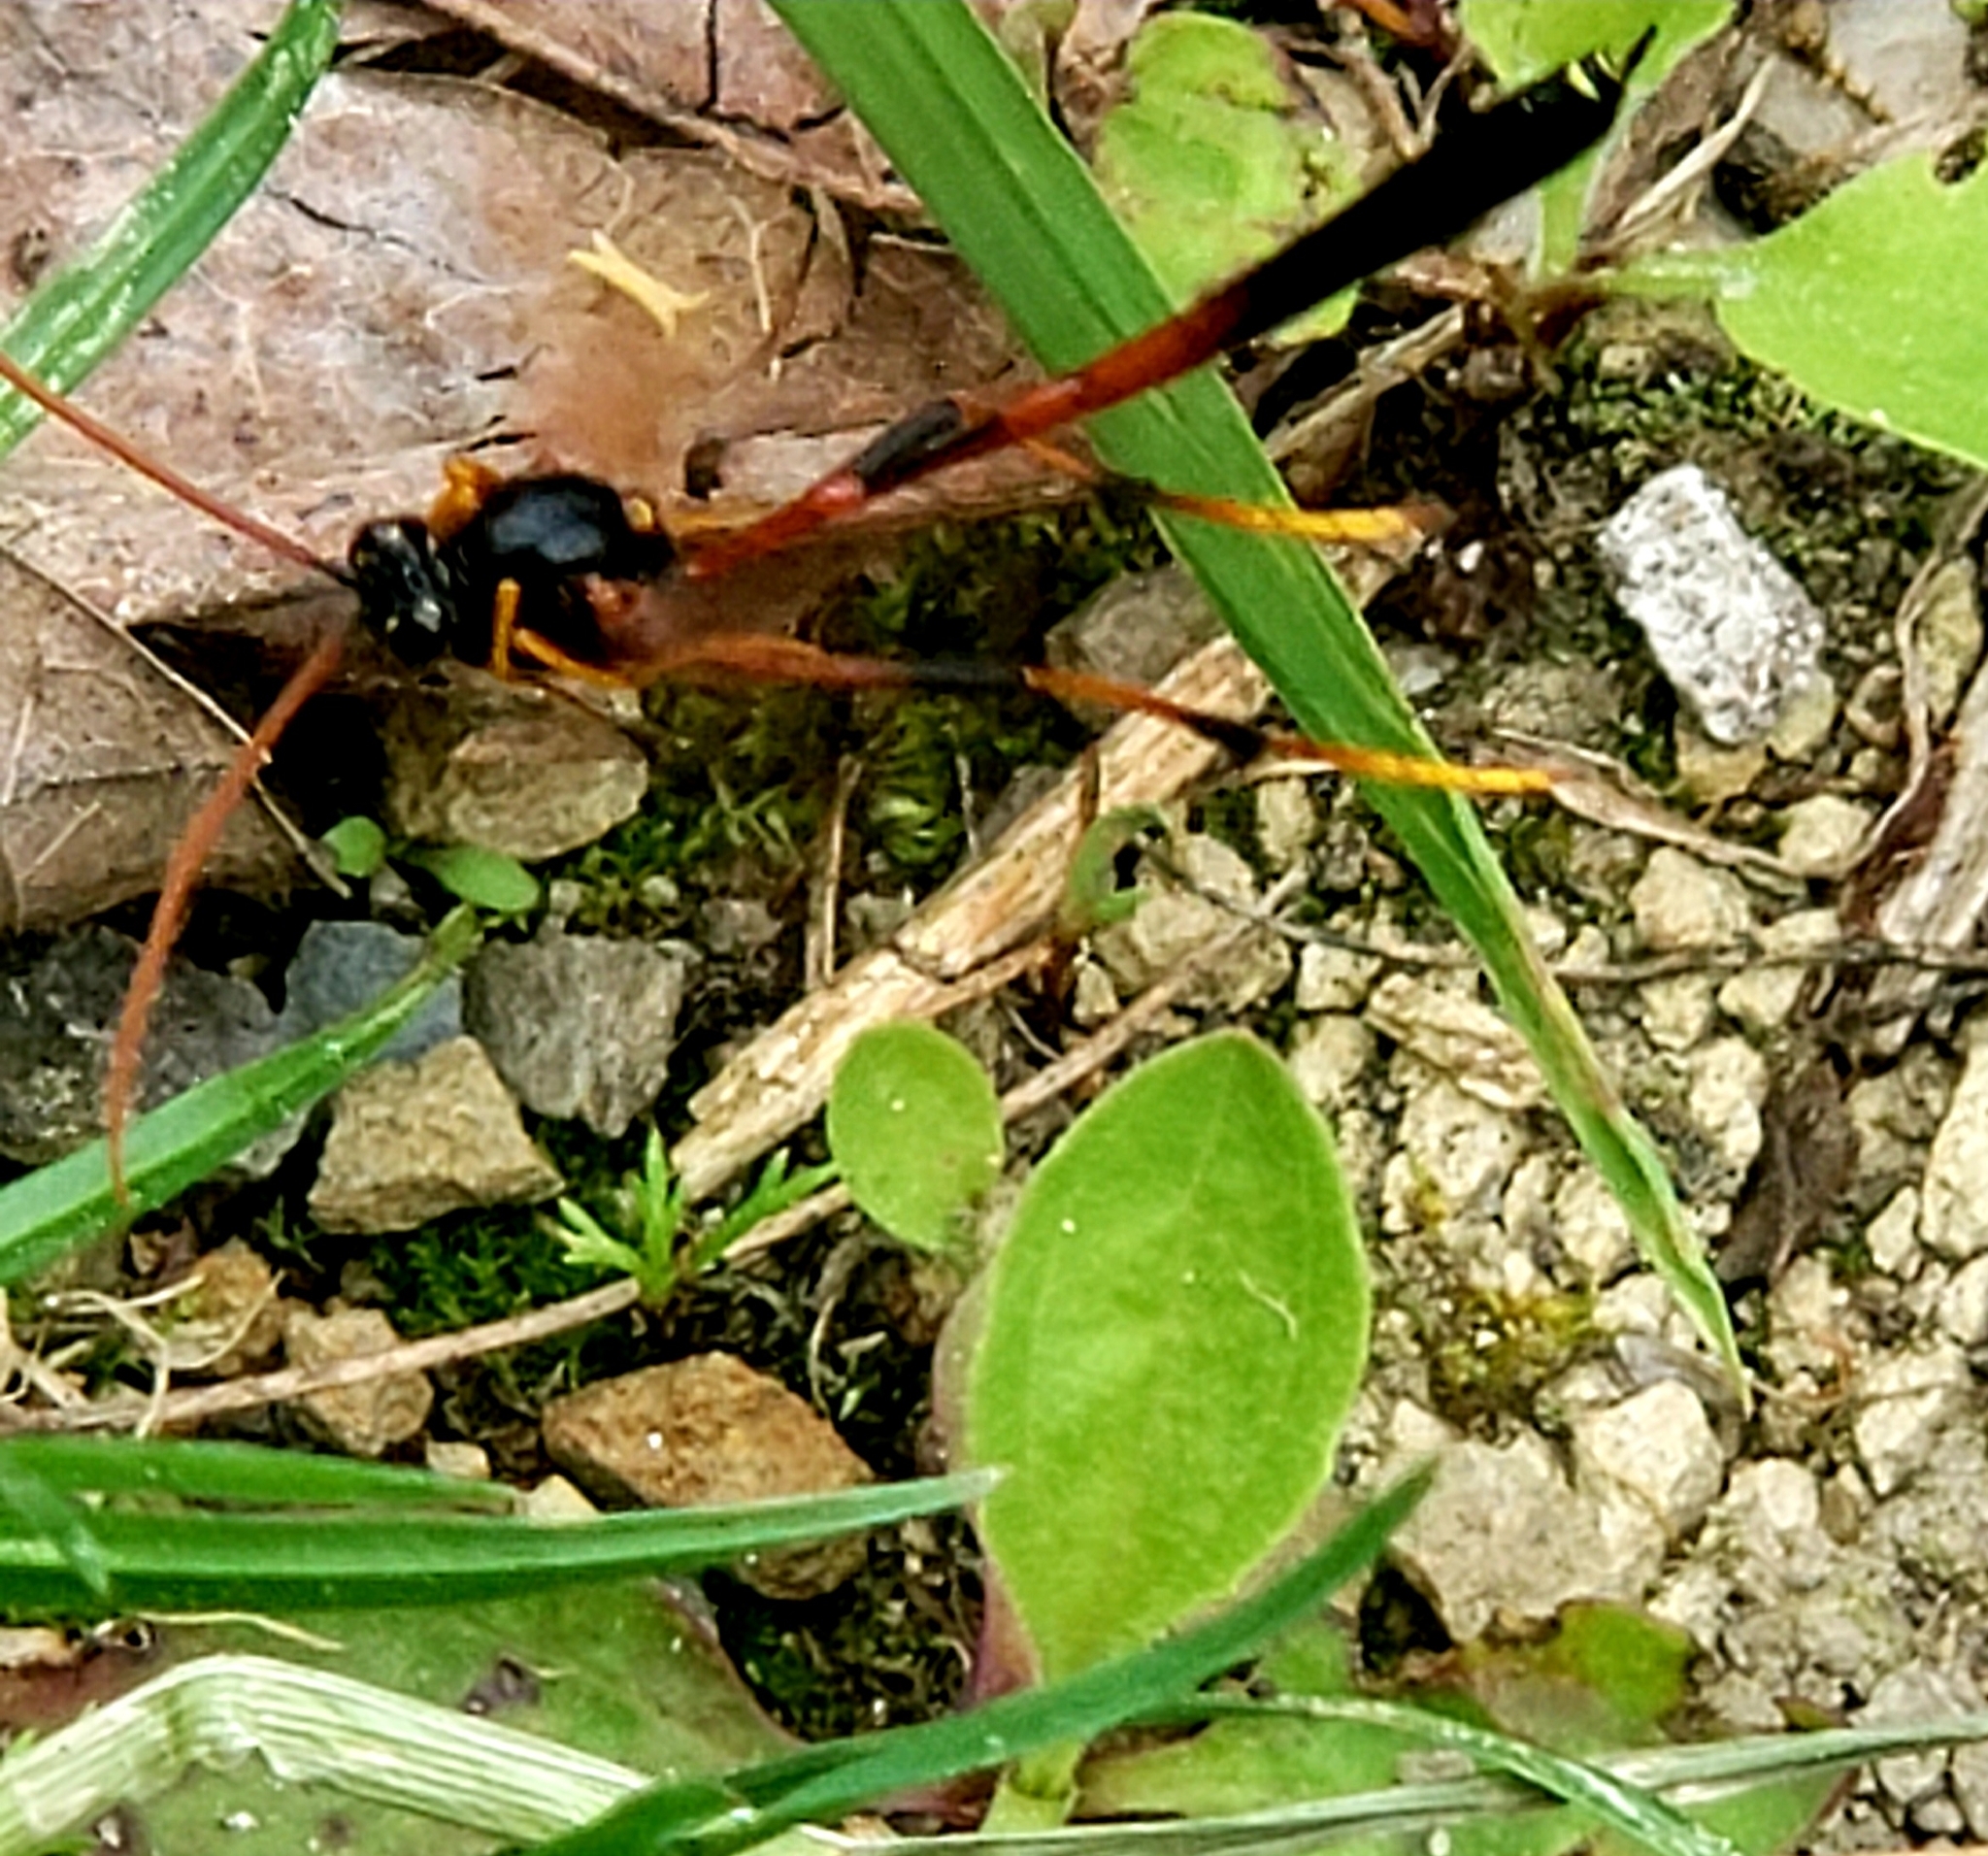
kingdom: Animalia
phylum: Arthropoda
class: Insecta
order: Hymenoptera
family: Ichneumonidae
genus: Therion
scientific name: Therion circumflexum
